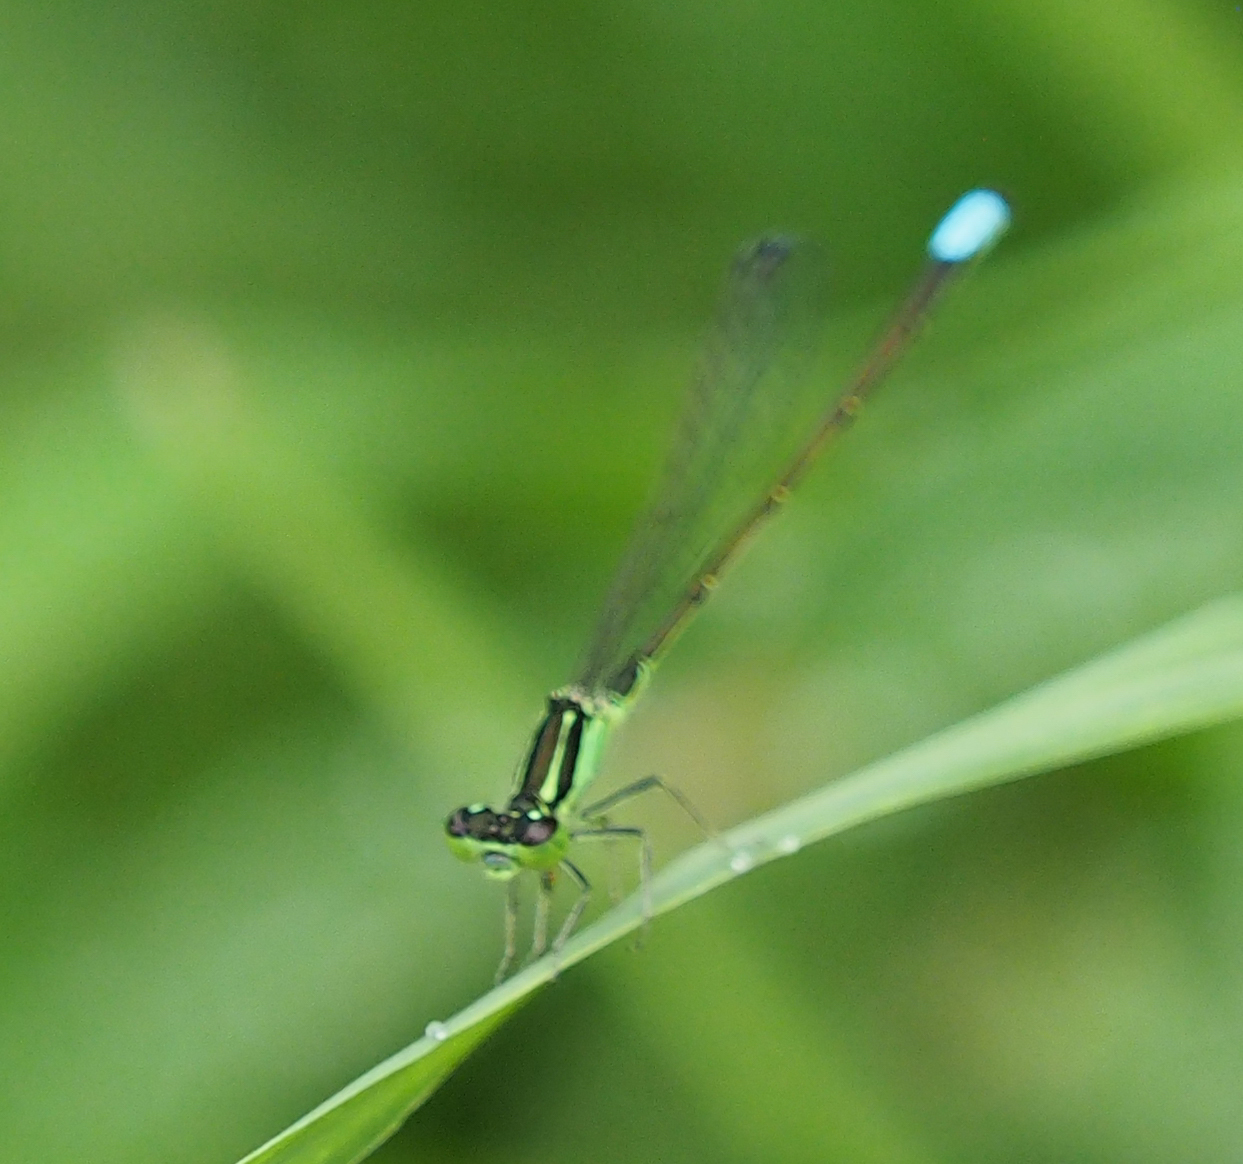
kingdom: Animalia
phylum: Arthropoda
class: Insecta
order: Odonata
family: Coenagrionidae
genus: Ischnura
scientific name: Ischnura verticalis
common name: Eastern forktail
